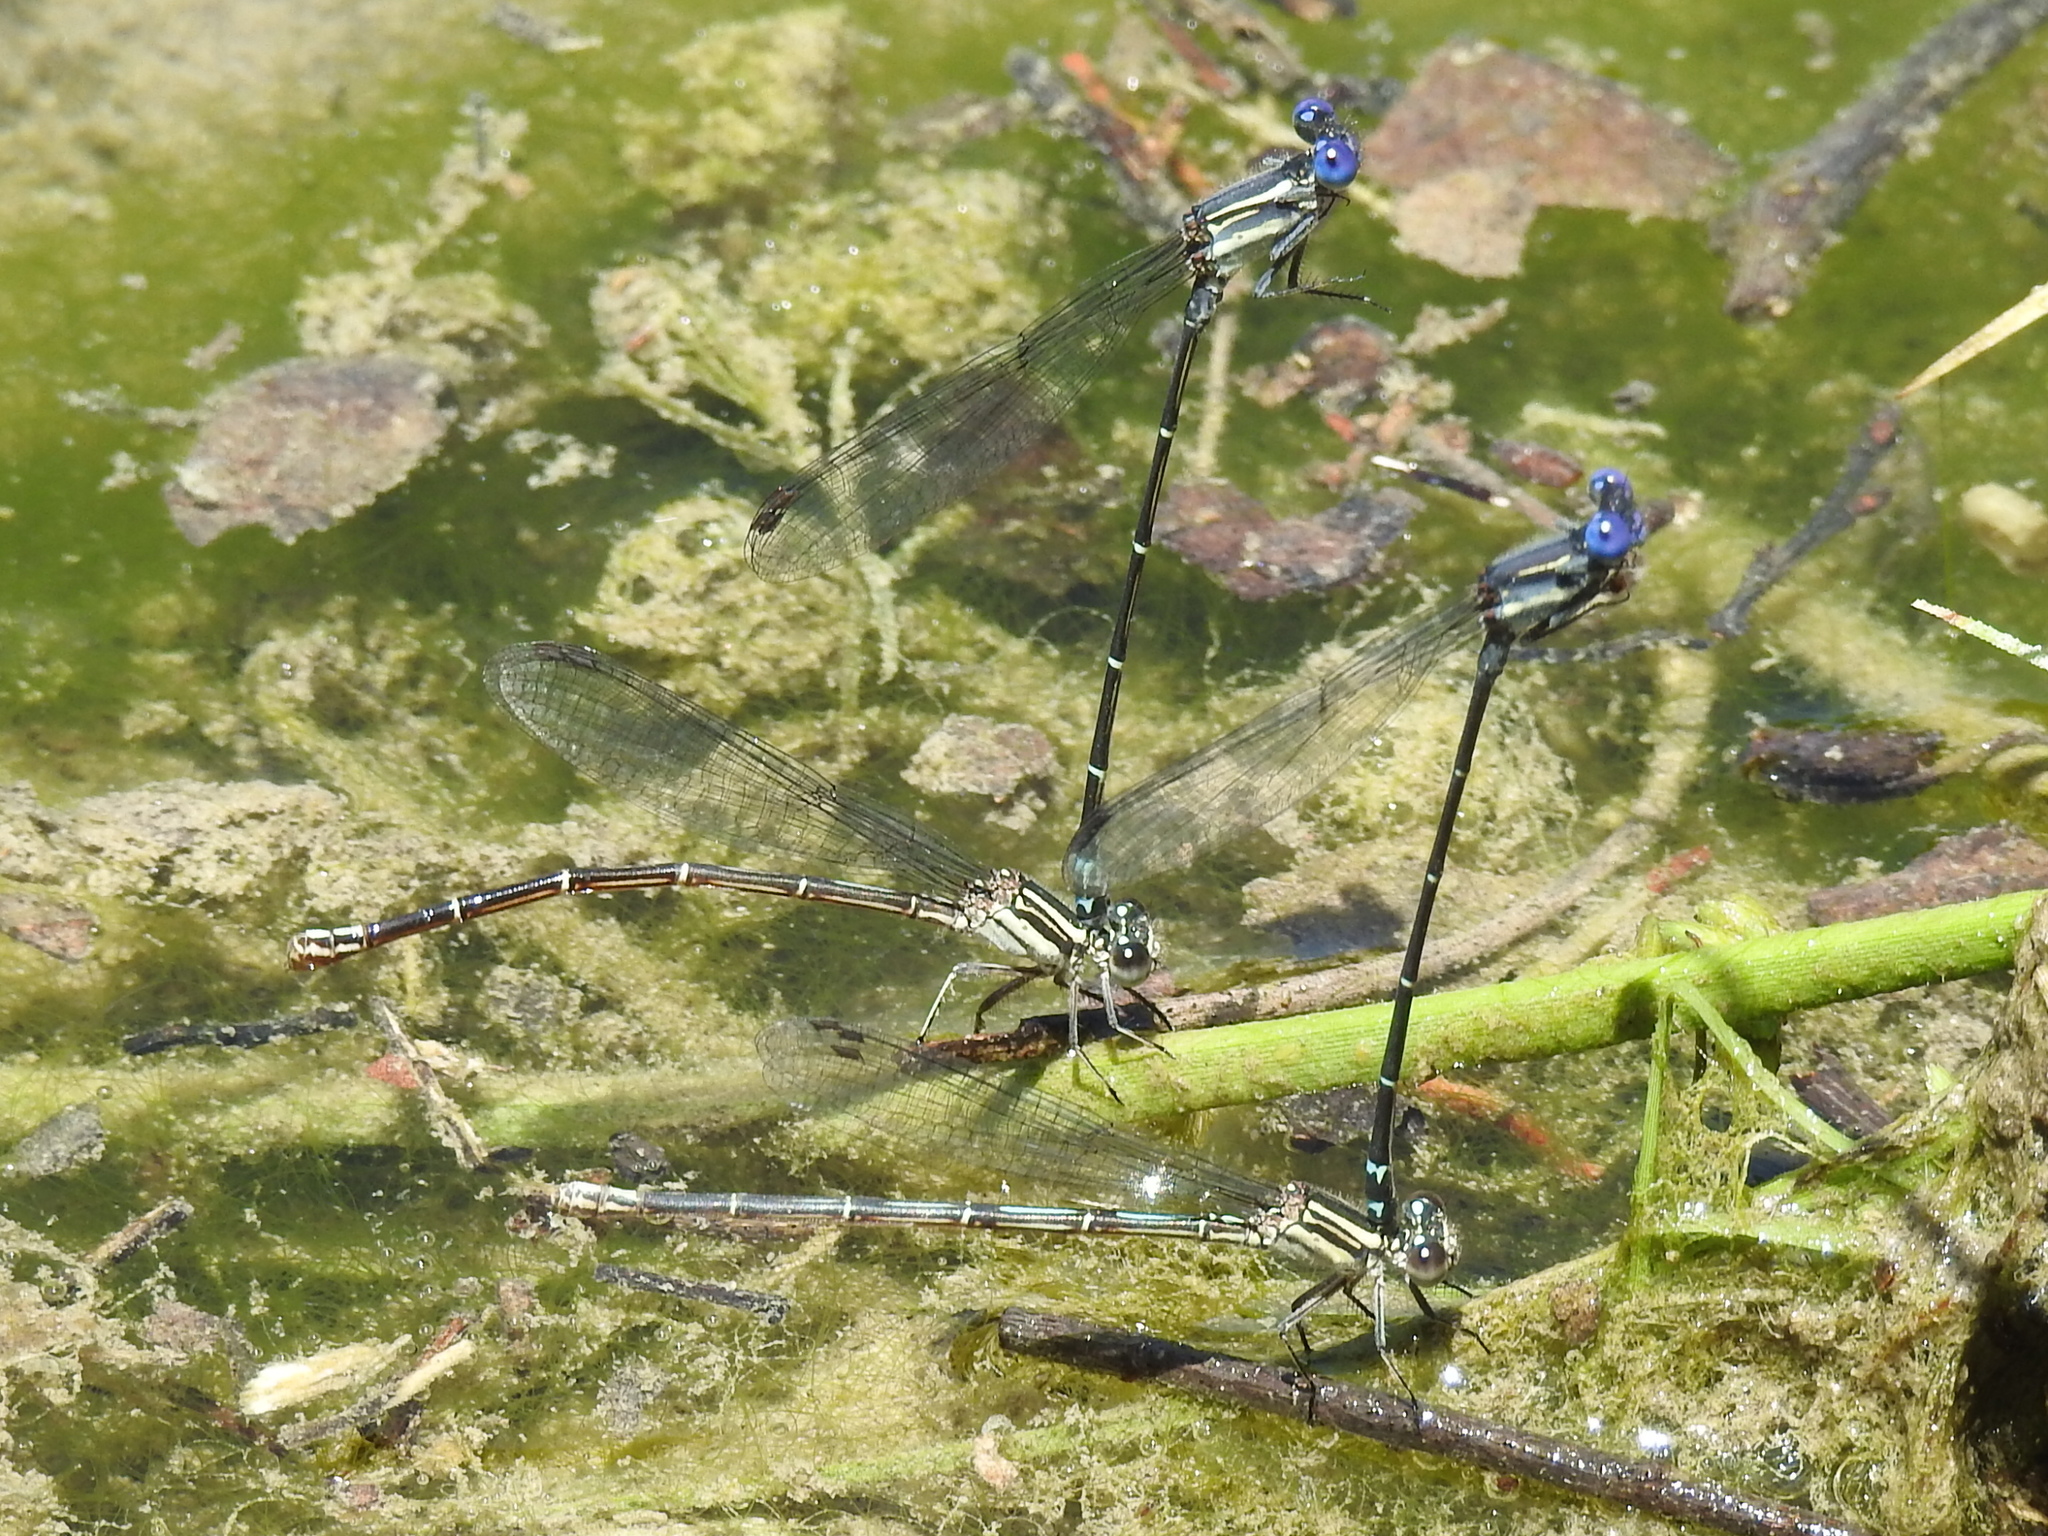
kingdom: Animalia
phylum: Arthropoda
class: Insecta
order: Odonata
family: Coenagrionidae
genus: Argia
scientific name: Argia translata
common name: Dusky dancer
